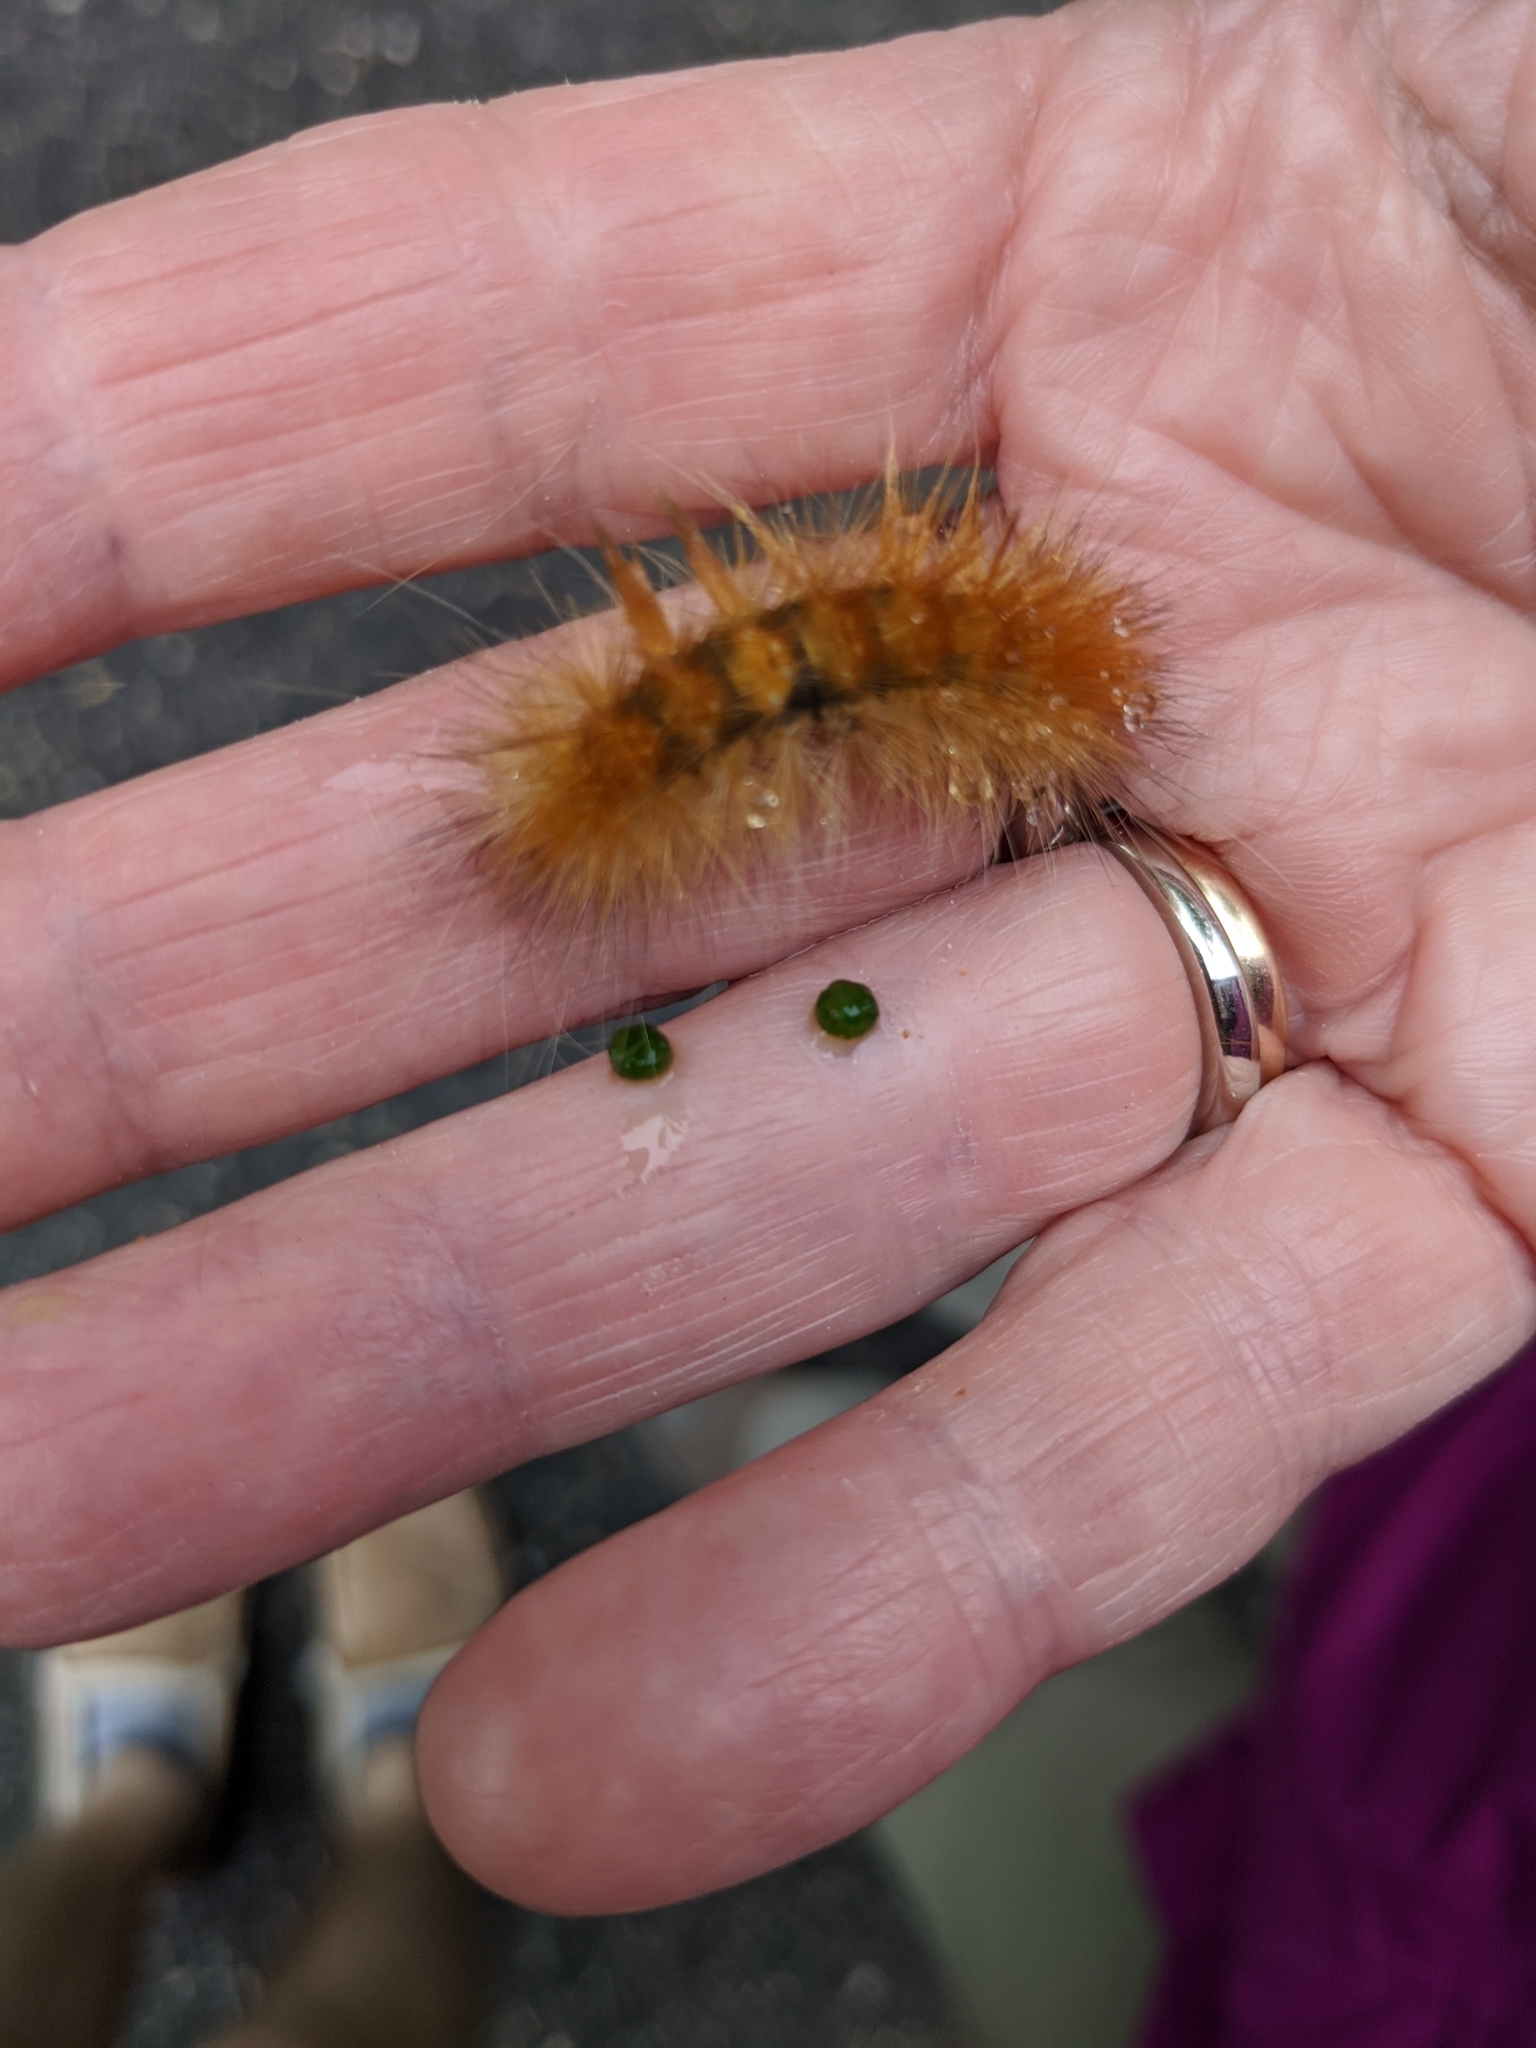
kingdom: Animalia
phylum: Arthropoda
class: Insecta
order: Lepidoptera
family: Erebidae
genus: Spilosoma
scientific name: Spilosoma virginica
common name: Virginia tiger moth
